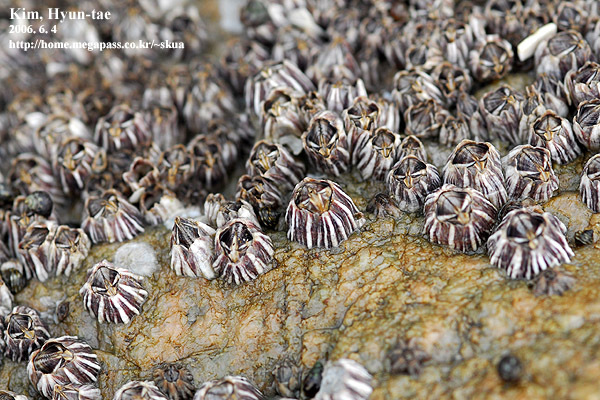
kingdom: Animalia
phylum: Arthropoda
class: Maxillopoda
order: Sessilia
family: Balanidae
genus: Fistulobalanus
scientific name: Fistulobalanus albicostatus
